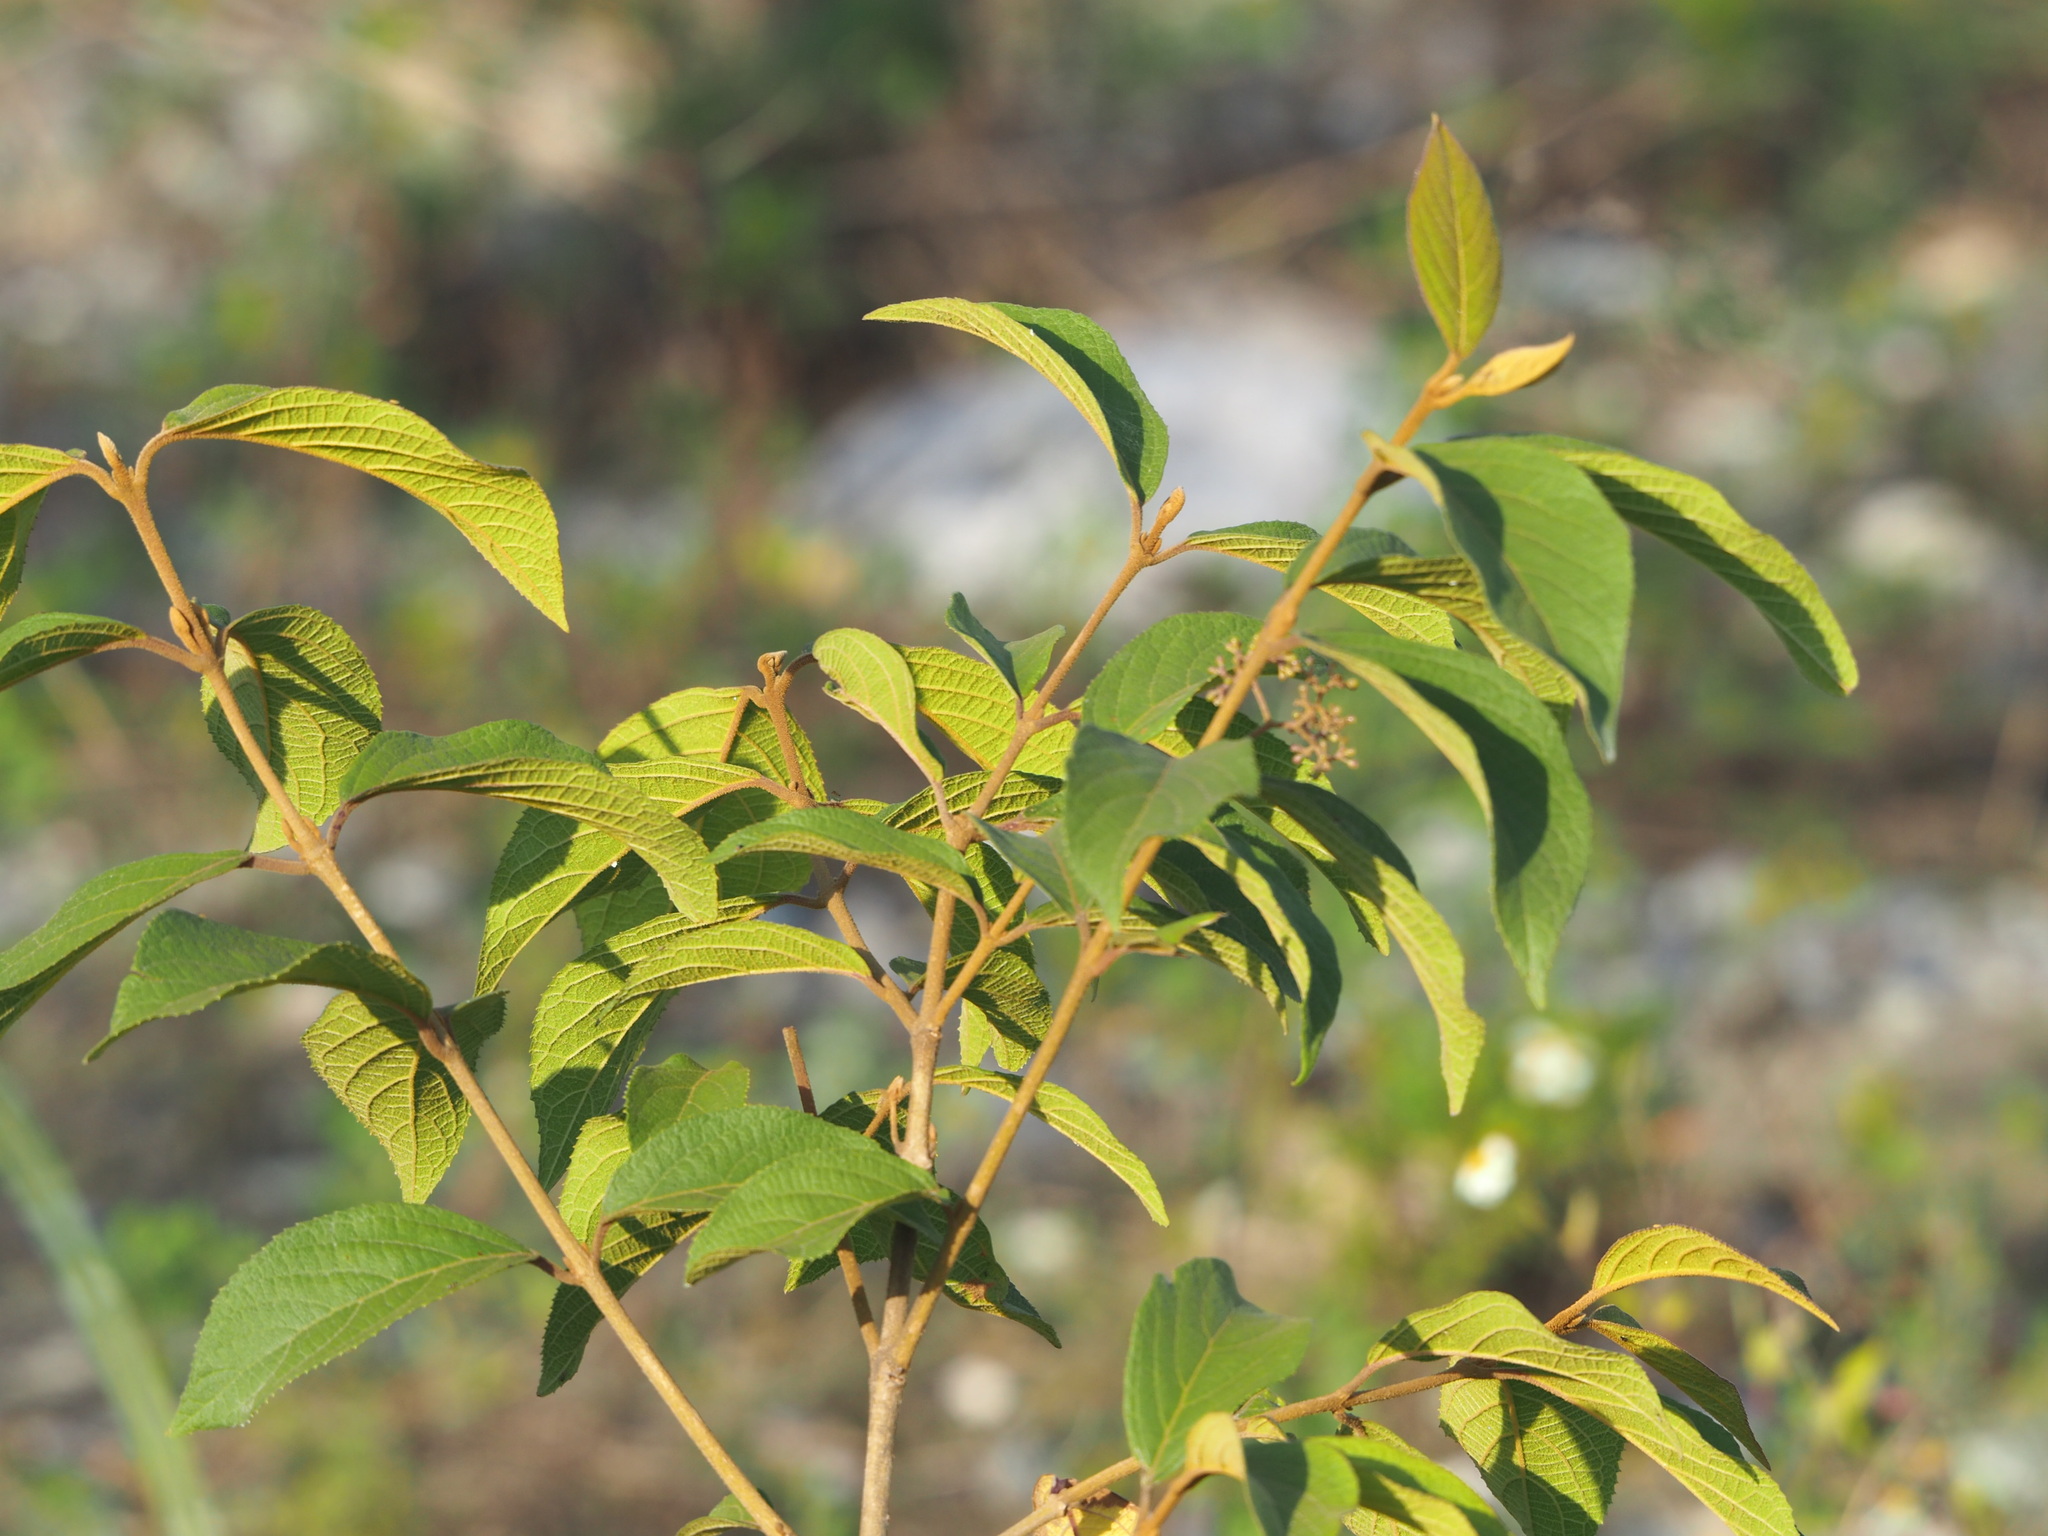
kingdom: Plantae
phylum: Tracheophyta
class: Magnoliopsida
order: Lamiales
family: Lamiaceae
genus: Callicarpa
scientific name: Callicarpa pedunculata
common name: Velvetleaf
